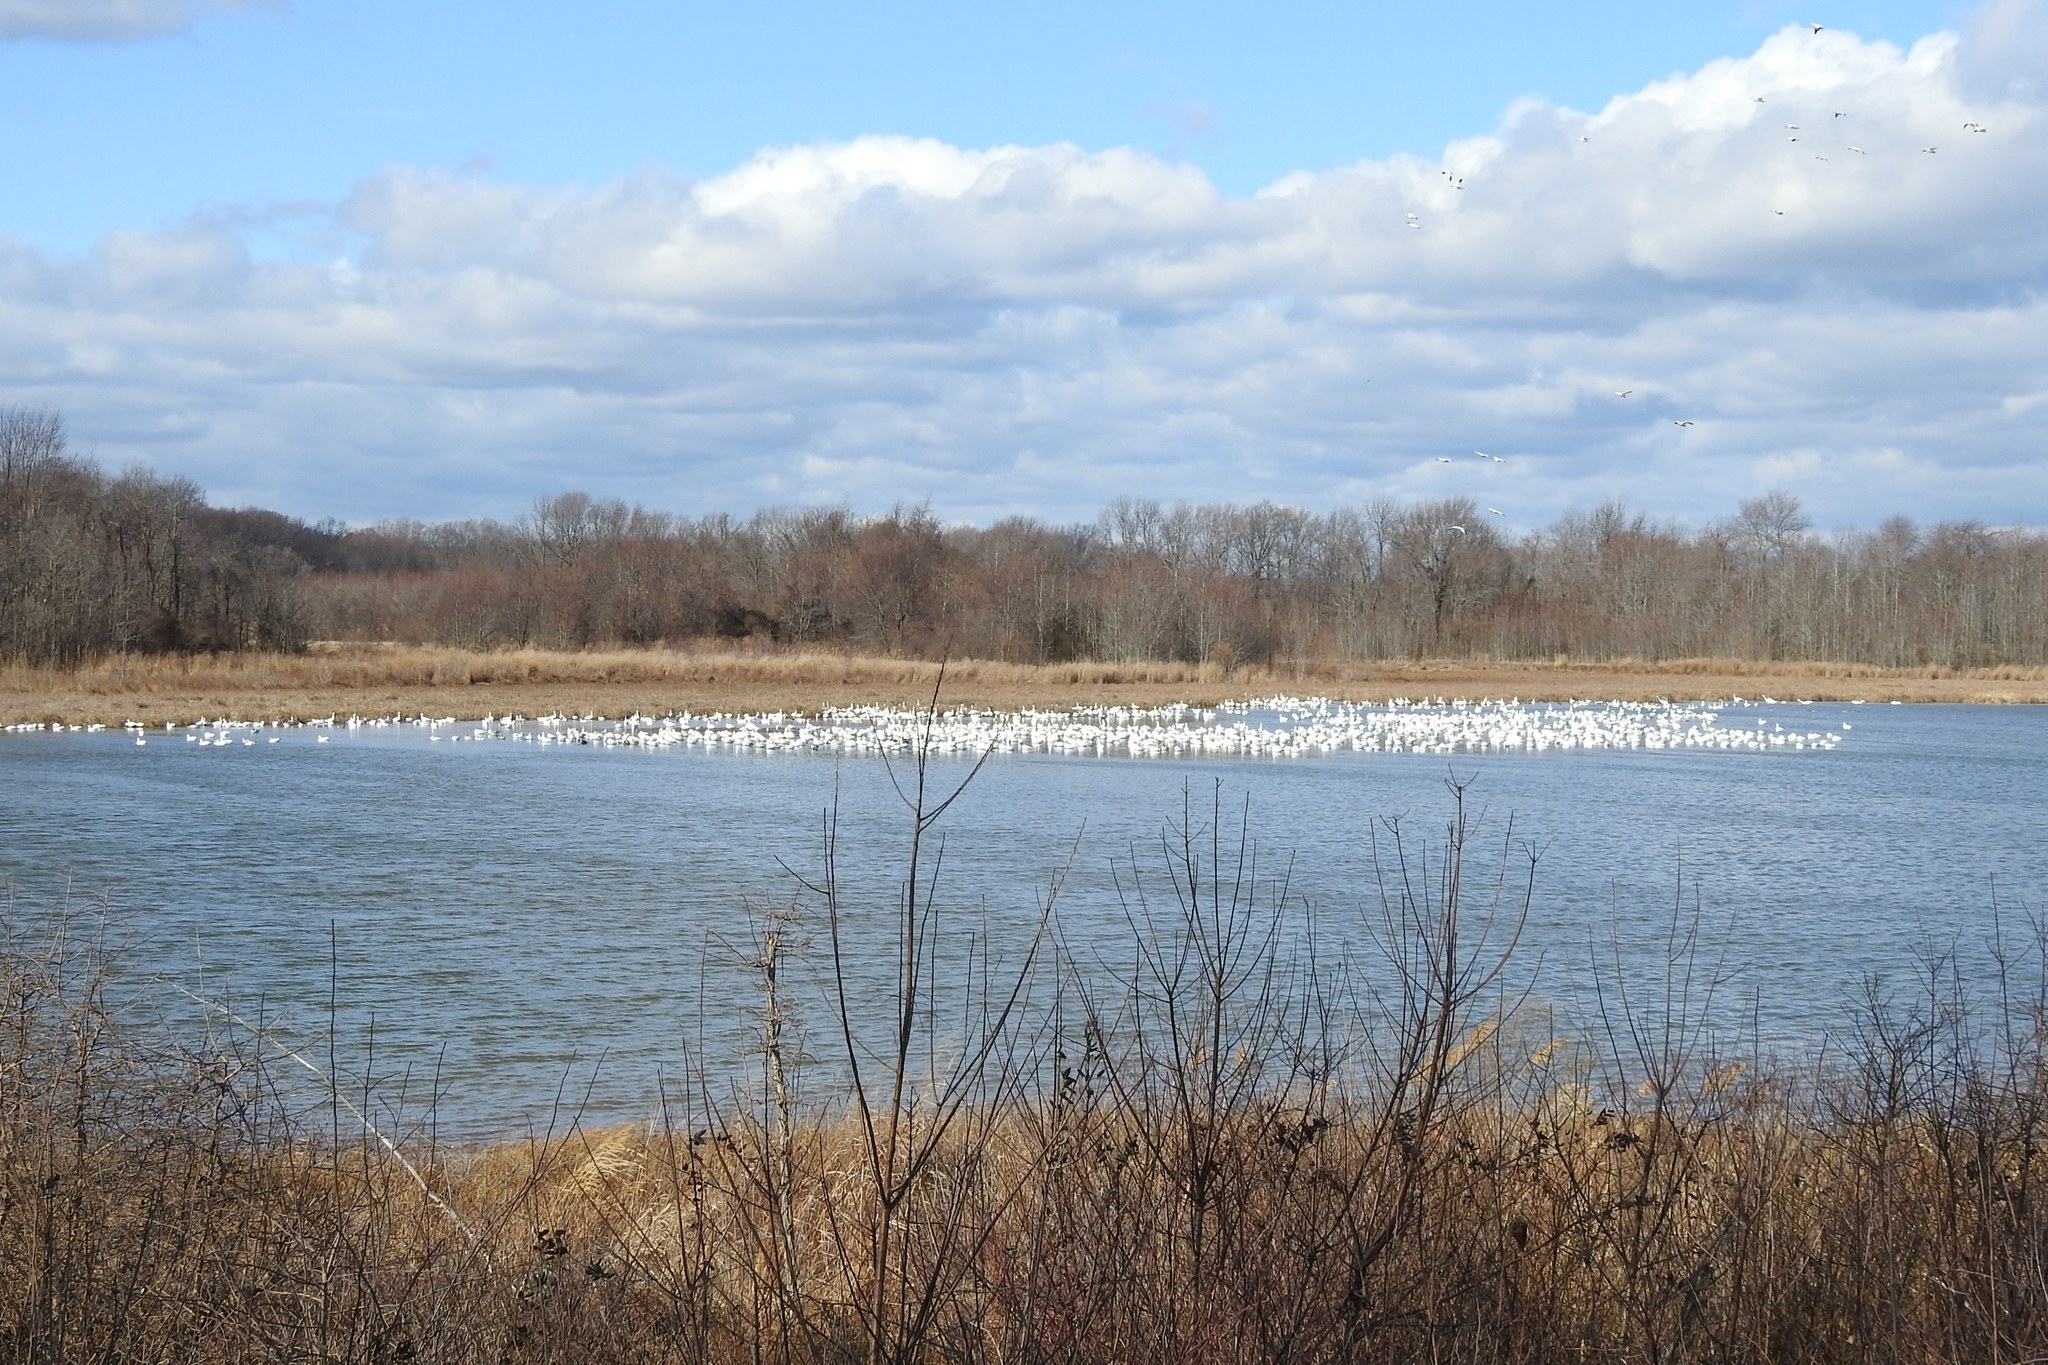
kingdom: Animalia
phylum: Chordata
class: Aves
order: Anseriformes
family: Anatidae
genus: Anser
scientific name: Anser caerulescens
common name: Snow goose
